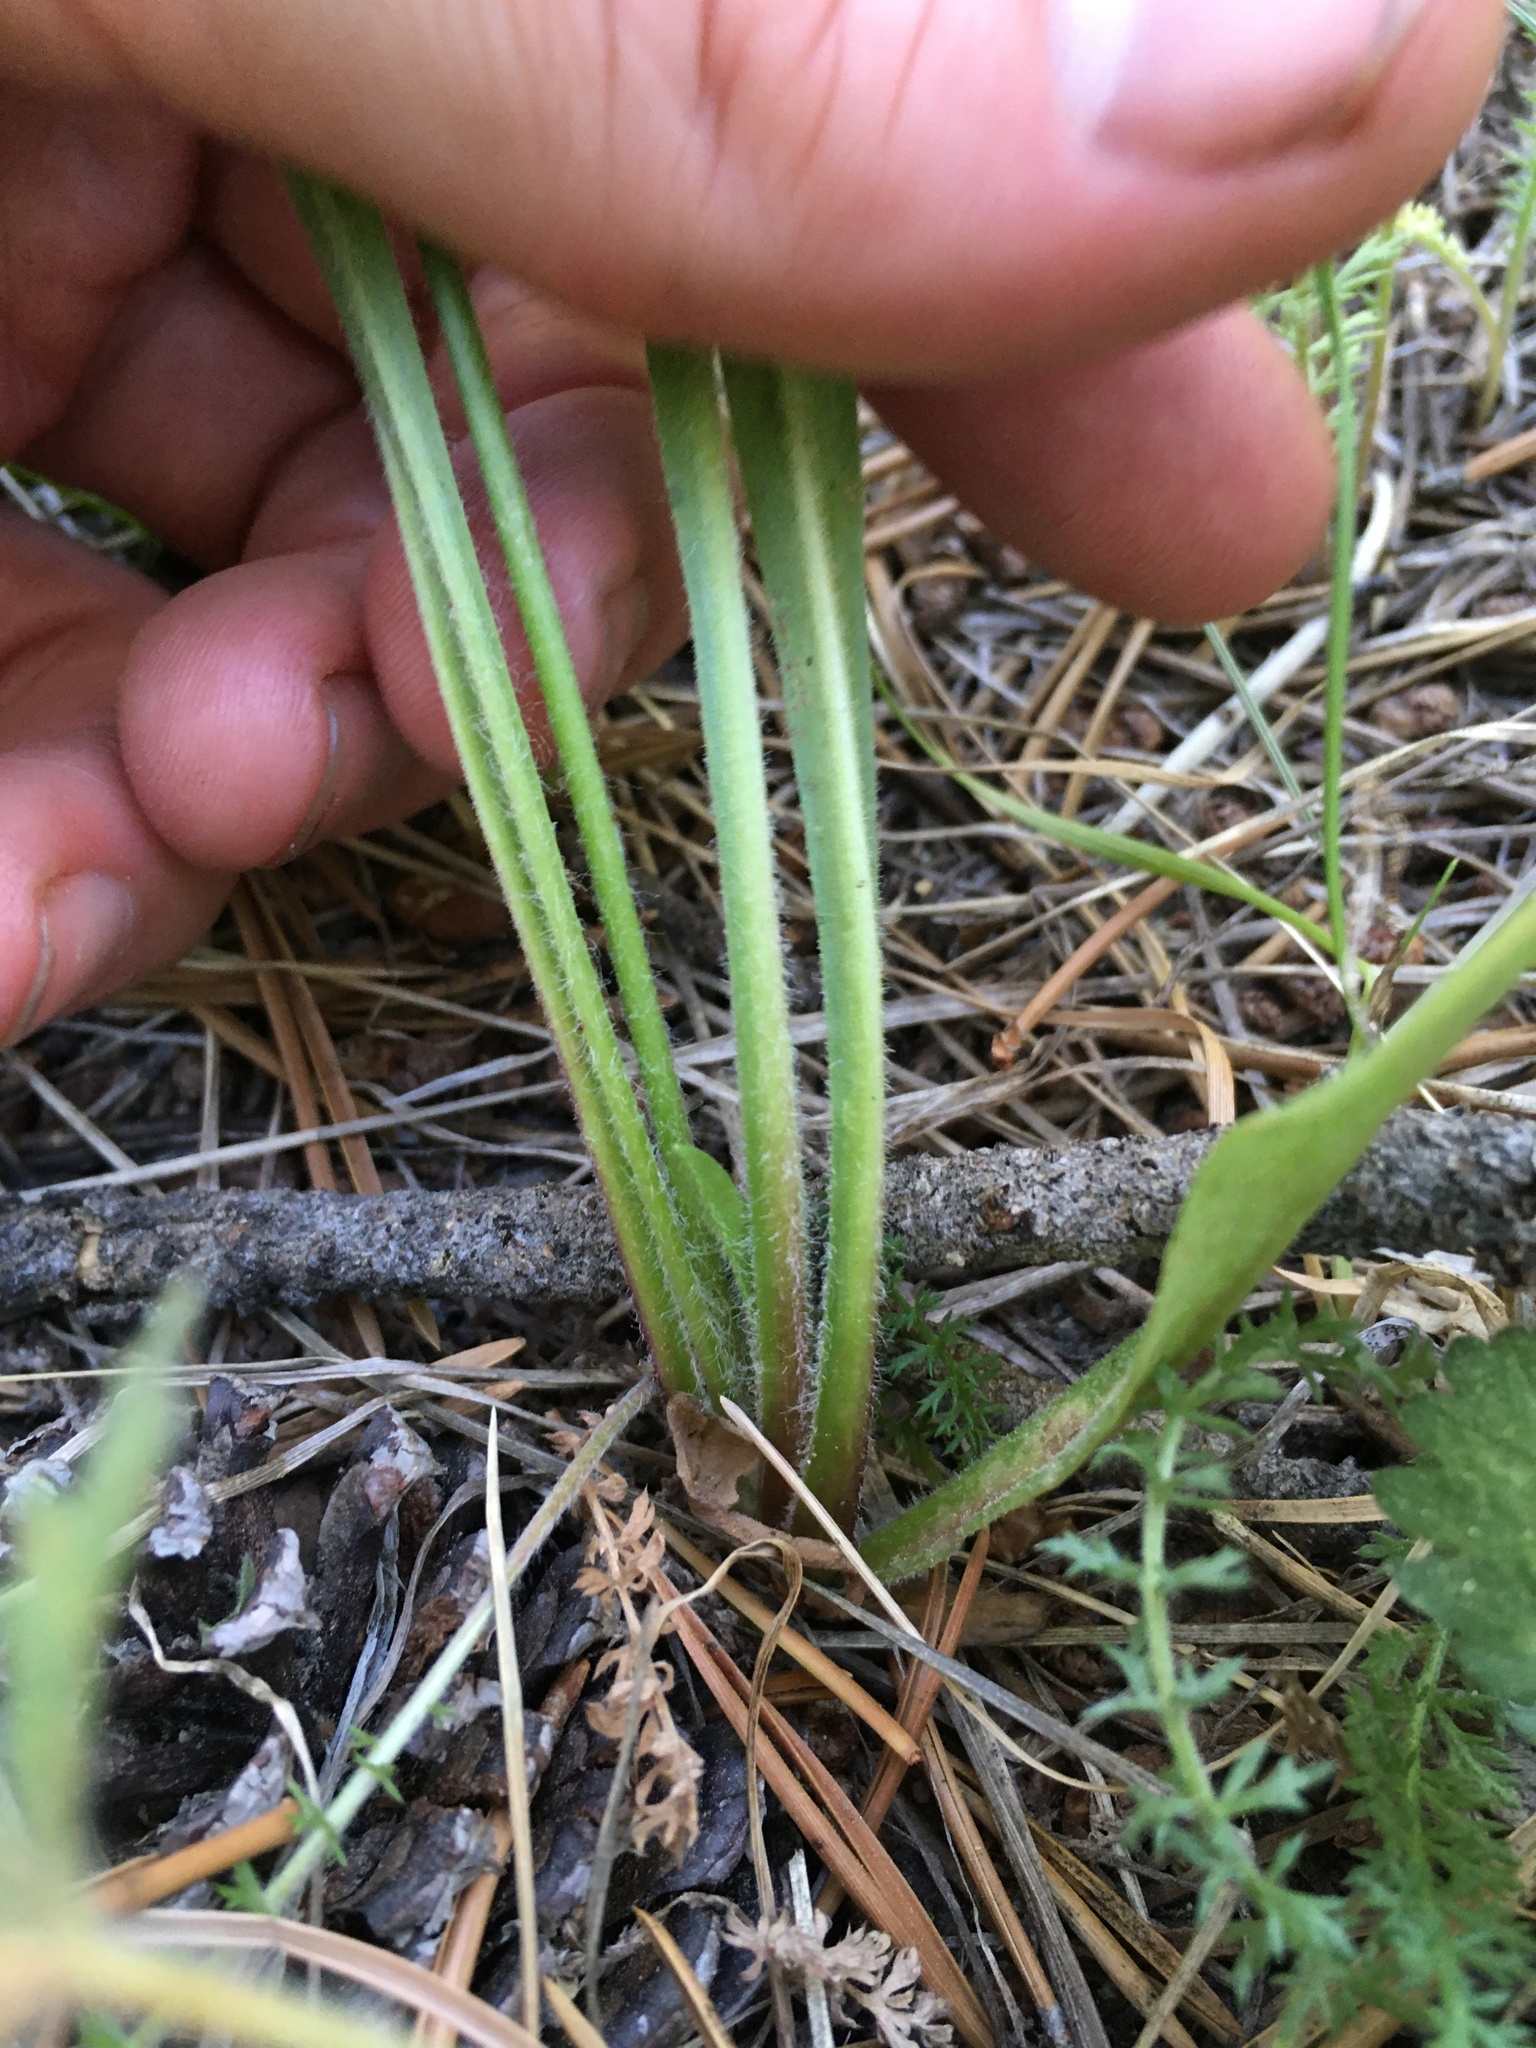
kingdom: Plantae
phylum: Tracheophyta
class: Magnoliopsida
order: Asterales
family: Asteraceae
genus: Agoseris
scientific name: Agoseris aurantiaca
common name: Mountain agoseris
